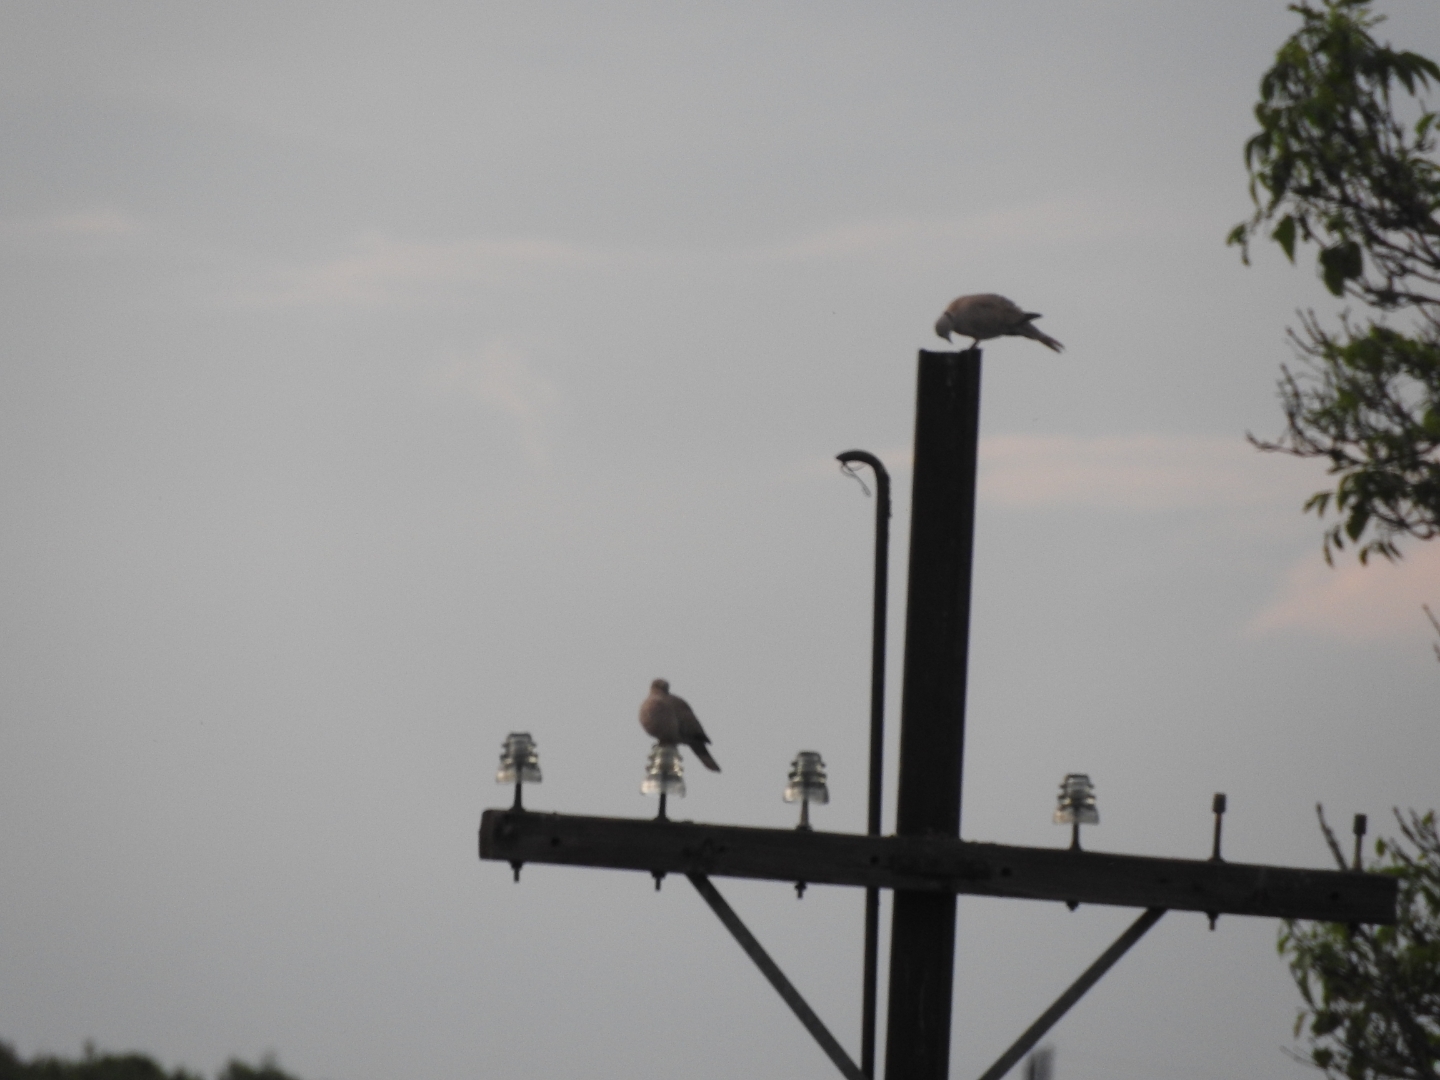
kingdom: Animalia
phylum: Chordata
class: Aves
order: Columbiformes
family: Columbidae
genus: Streptopelia
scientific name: Streptopelia decaocto
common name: Eurasian collared dove
